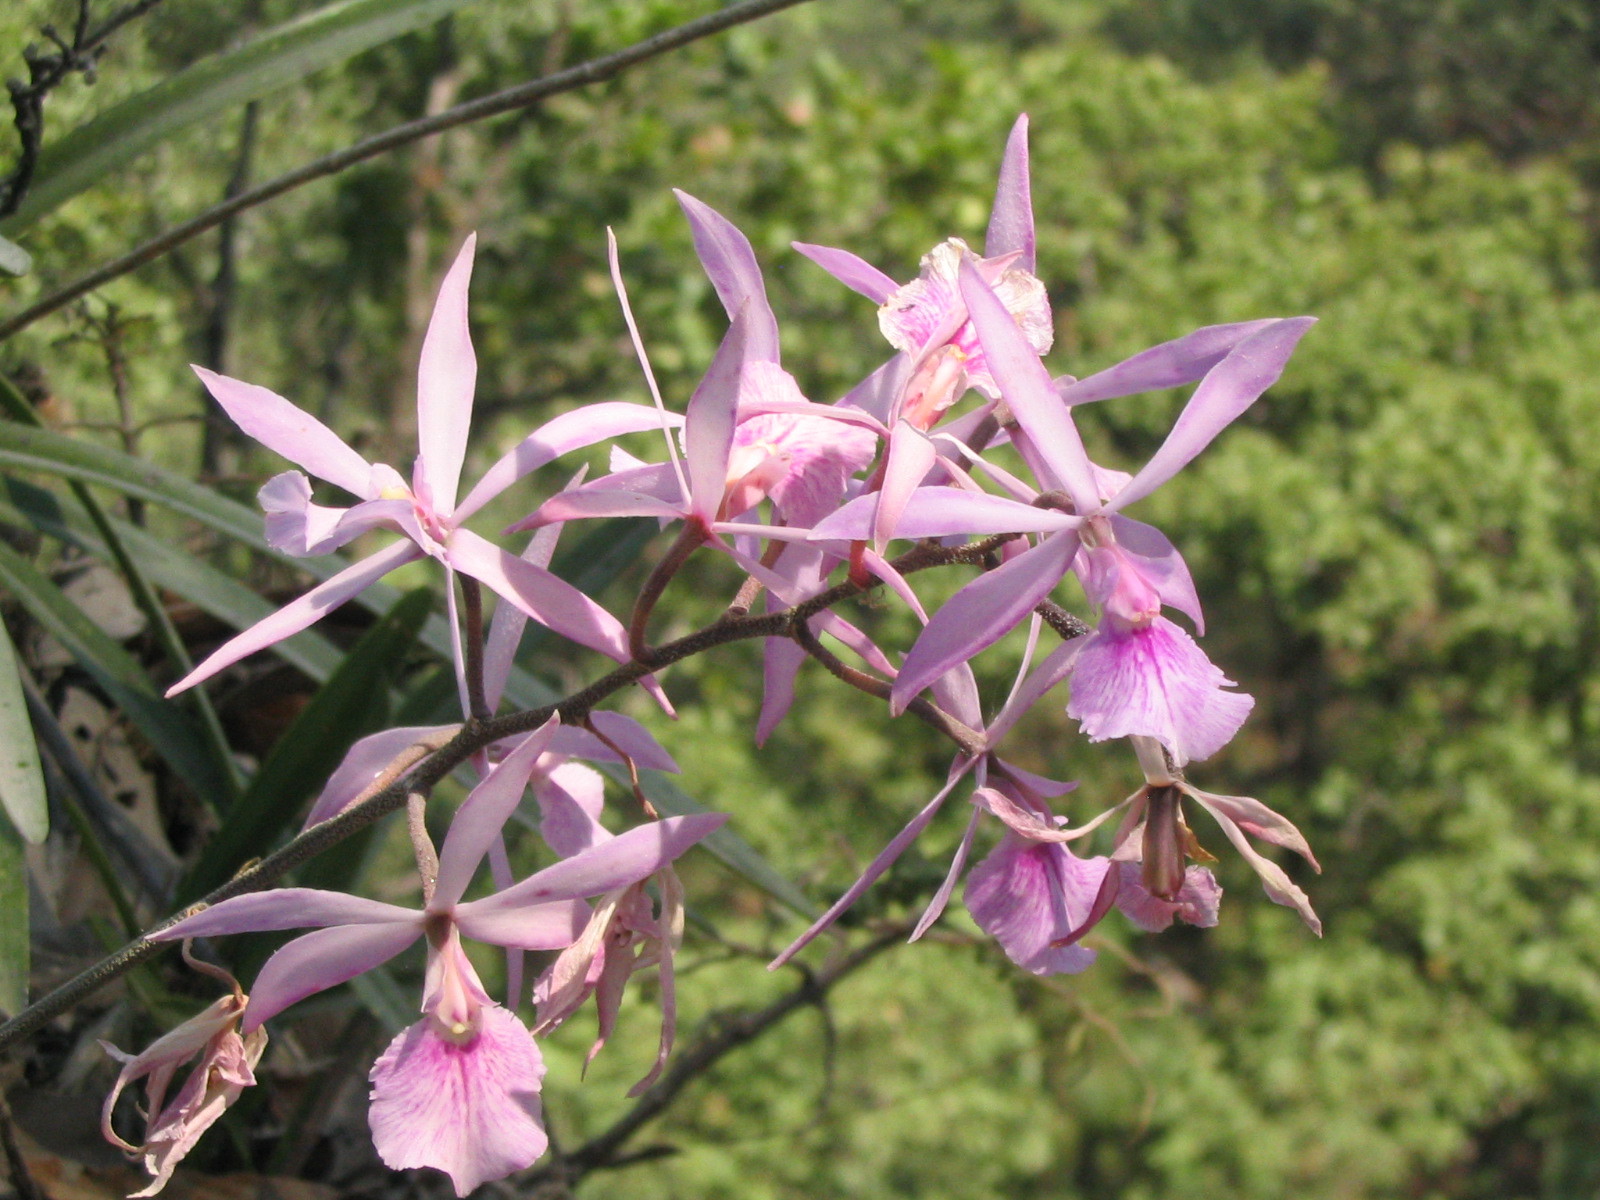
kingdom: Plantae
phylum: Tracheophyta
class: Liliopsida
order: Asparagales
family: Orchidaceae
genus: Encyclia
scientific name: Encyclia adenocaula
